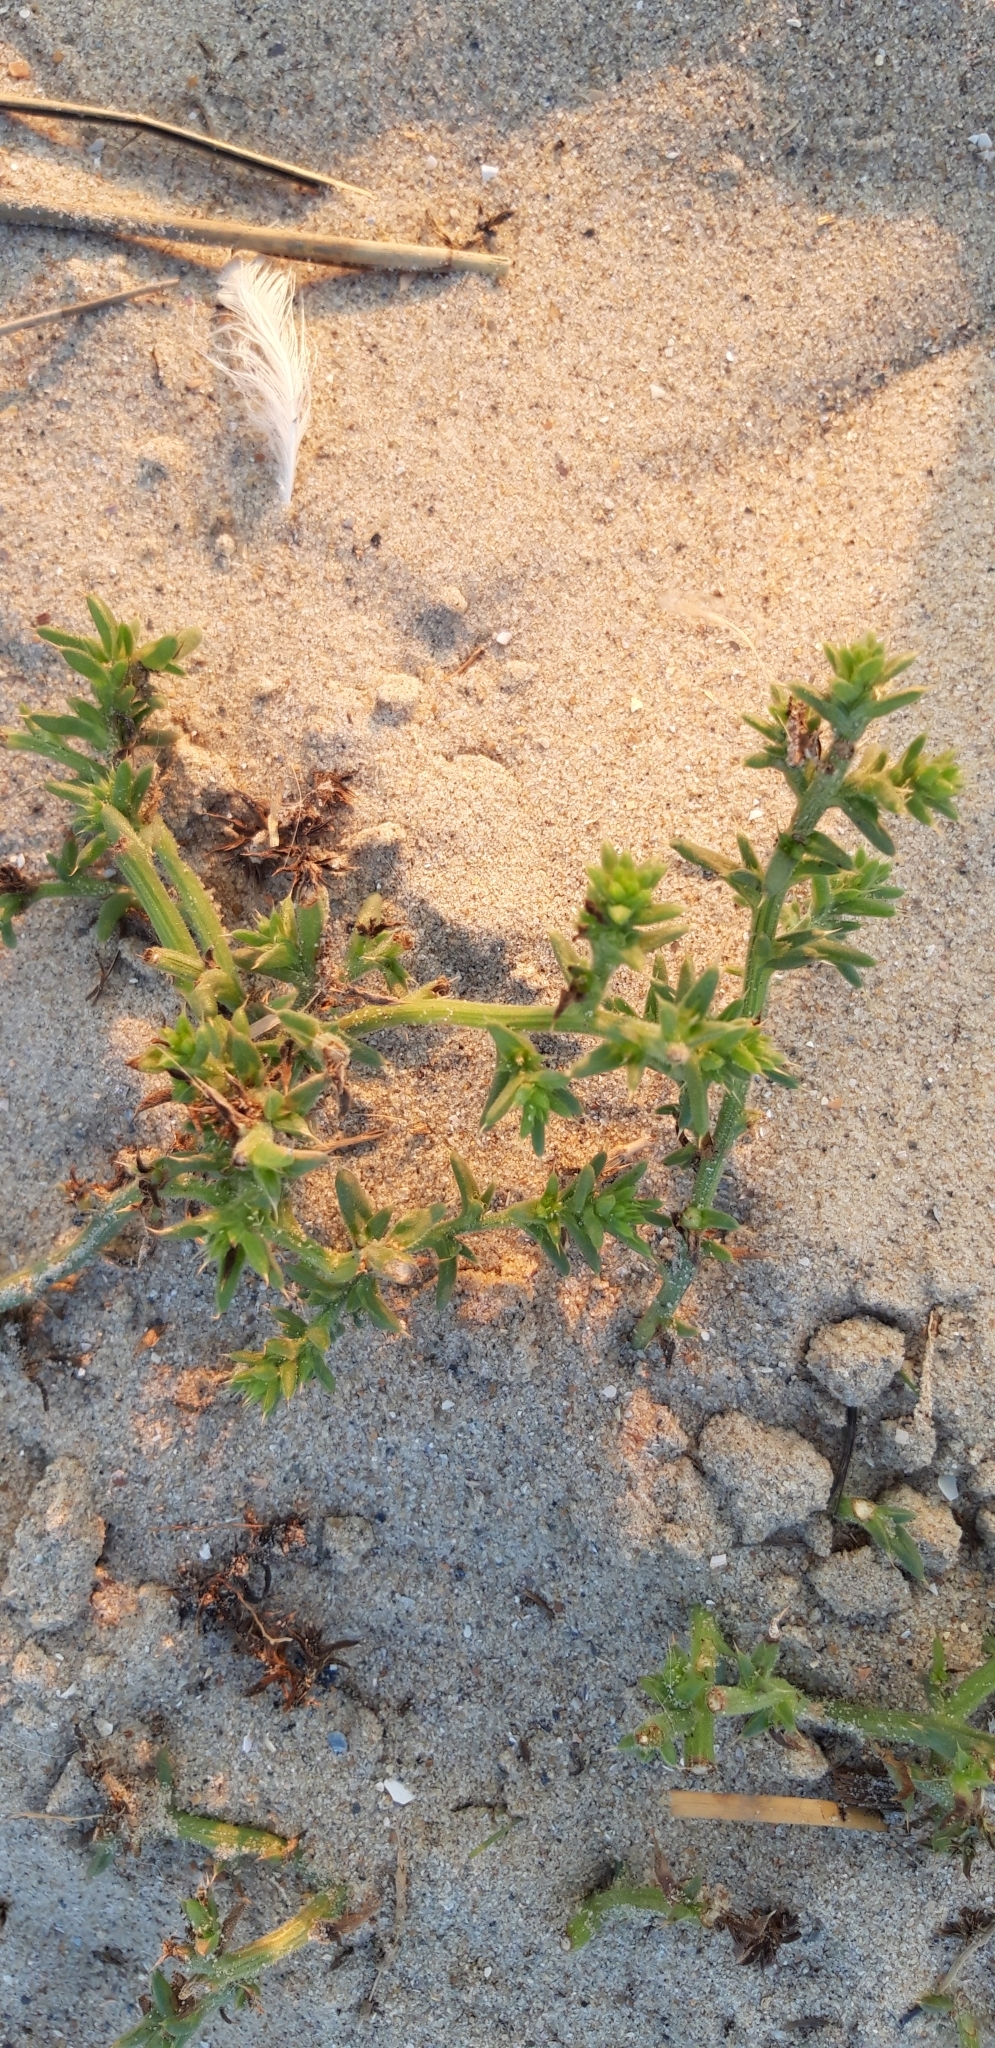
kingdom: Plantae
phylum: Tracheophyta
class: Magnoliopsida
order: Caryophyllales
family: Amaranthaceae
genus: Salsola
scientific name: Salsola kali
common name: Saltwort
